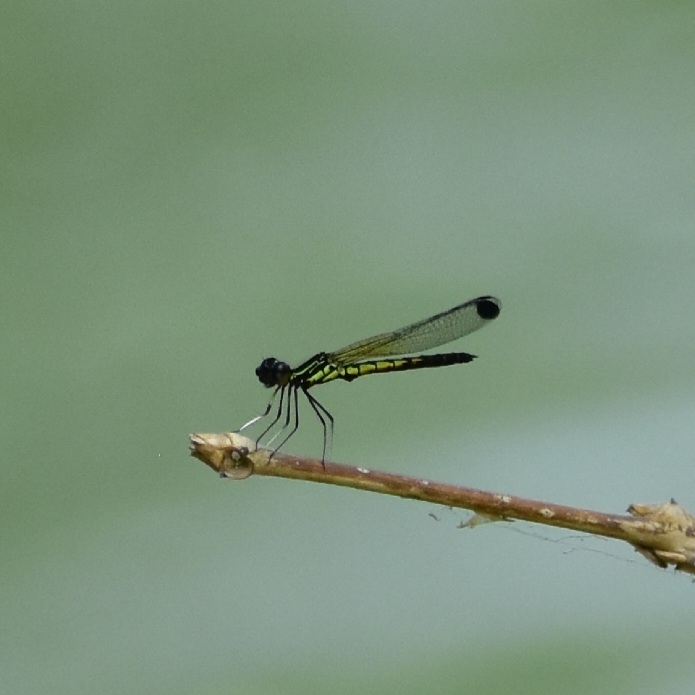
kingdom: Animalia
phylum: Arthropoda
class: Insecta
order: Odonata
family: Chlorocyphidae
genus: Libellago
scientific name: Libellago indica
